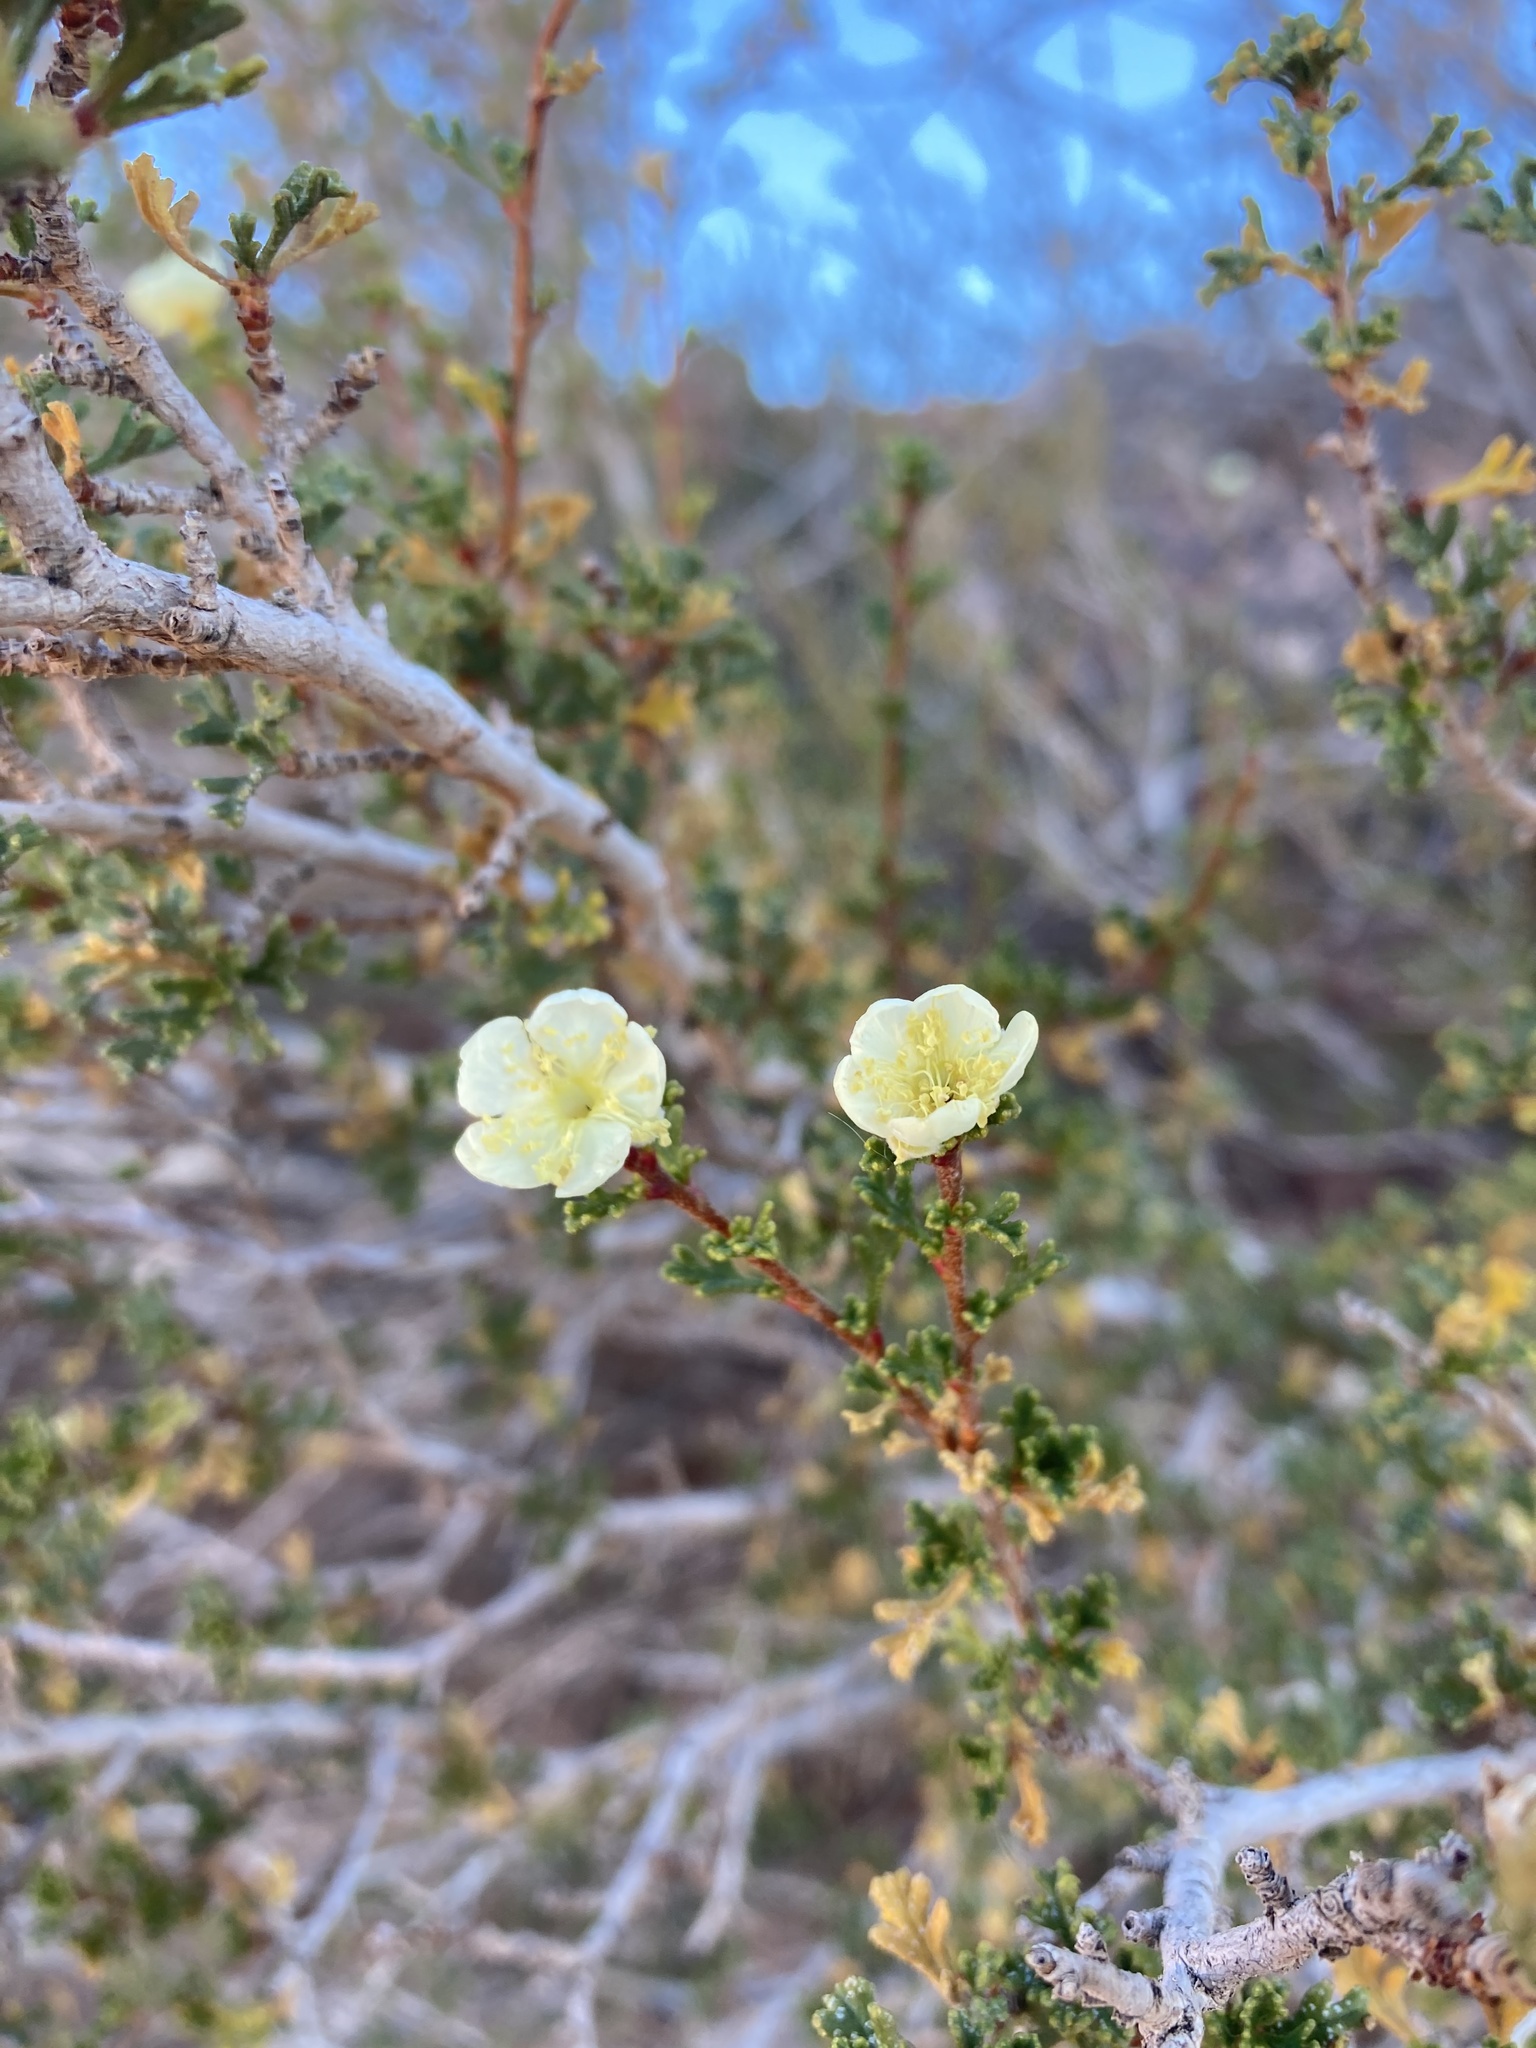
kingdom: Plantae
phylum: Tracheophyta
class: Magnoliopsida
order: Rosales
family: Rosaceae
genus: Purshia
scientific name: Purshia stansburiana
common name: Stansbury's cliffrose
